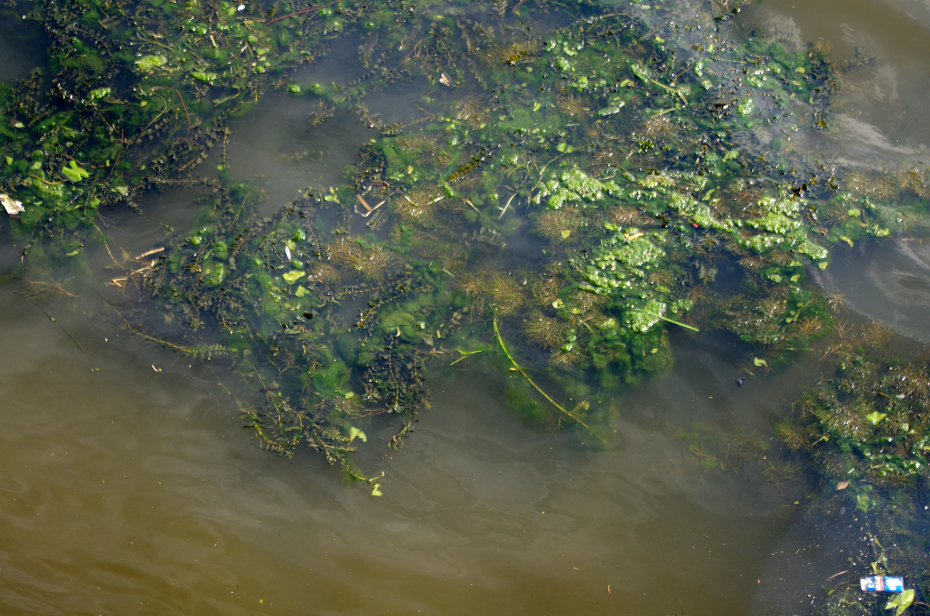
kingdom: Plantae
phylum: Tracheophyta
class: Liliopsida
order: Alismatales
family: Potamogetonaceae
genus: Potamogeton
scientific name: Potamogeton perfoliatus
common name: Perfoliate pondweed
